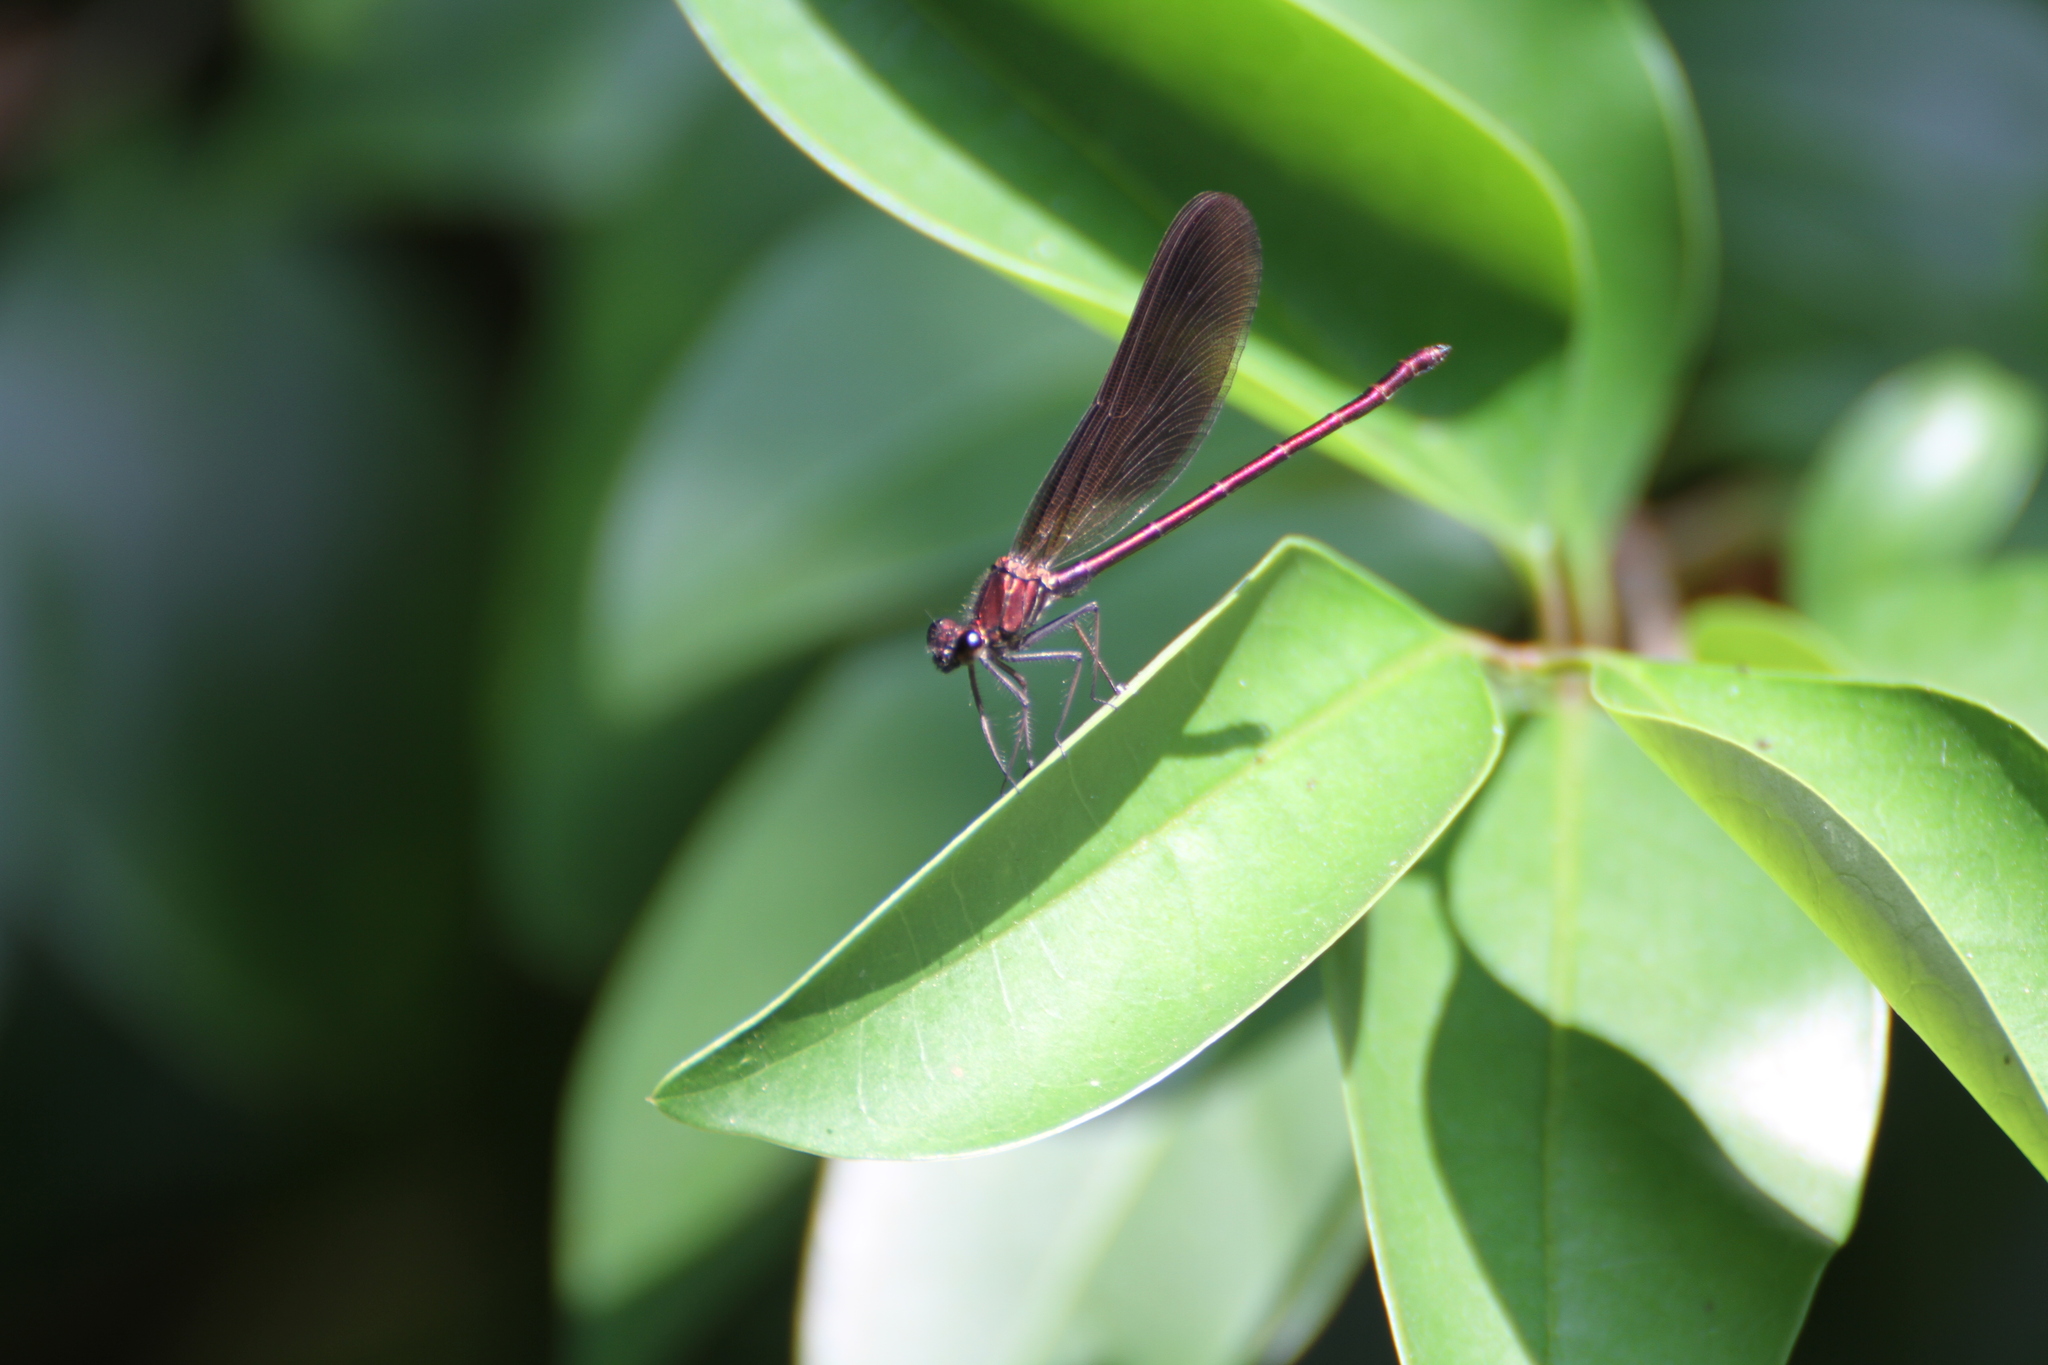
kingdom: Animalia
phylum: Arthropoda
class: Insecta
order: Odonata
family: Calopterygidae
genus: Calopteryx
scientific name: Calopteryx haemorrhoidalis
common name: Copper demoiselle
